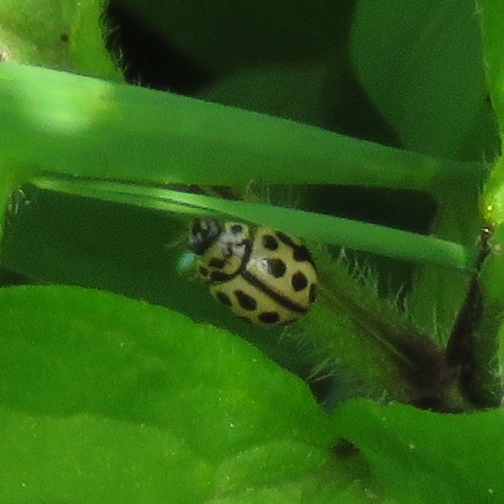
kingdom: Animalia
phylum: Arthropoda
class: Insecta
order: Coleoptera
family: Coccinellidae
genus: Tytthaspis
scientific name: Tytthaspis sedecimpunctata
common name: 16-spot ladybird
